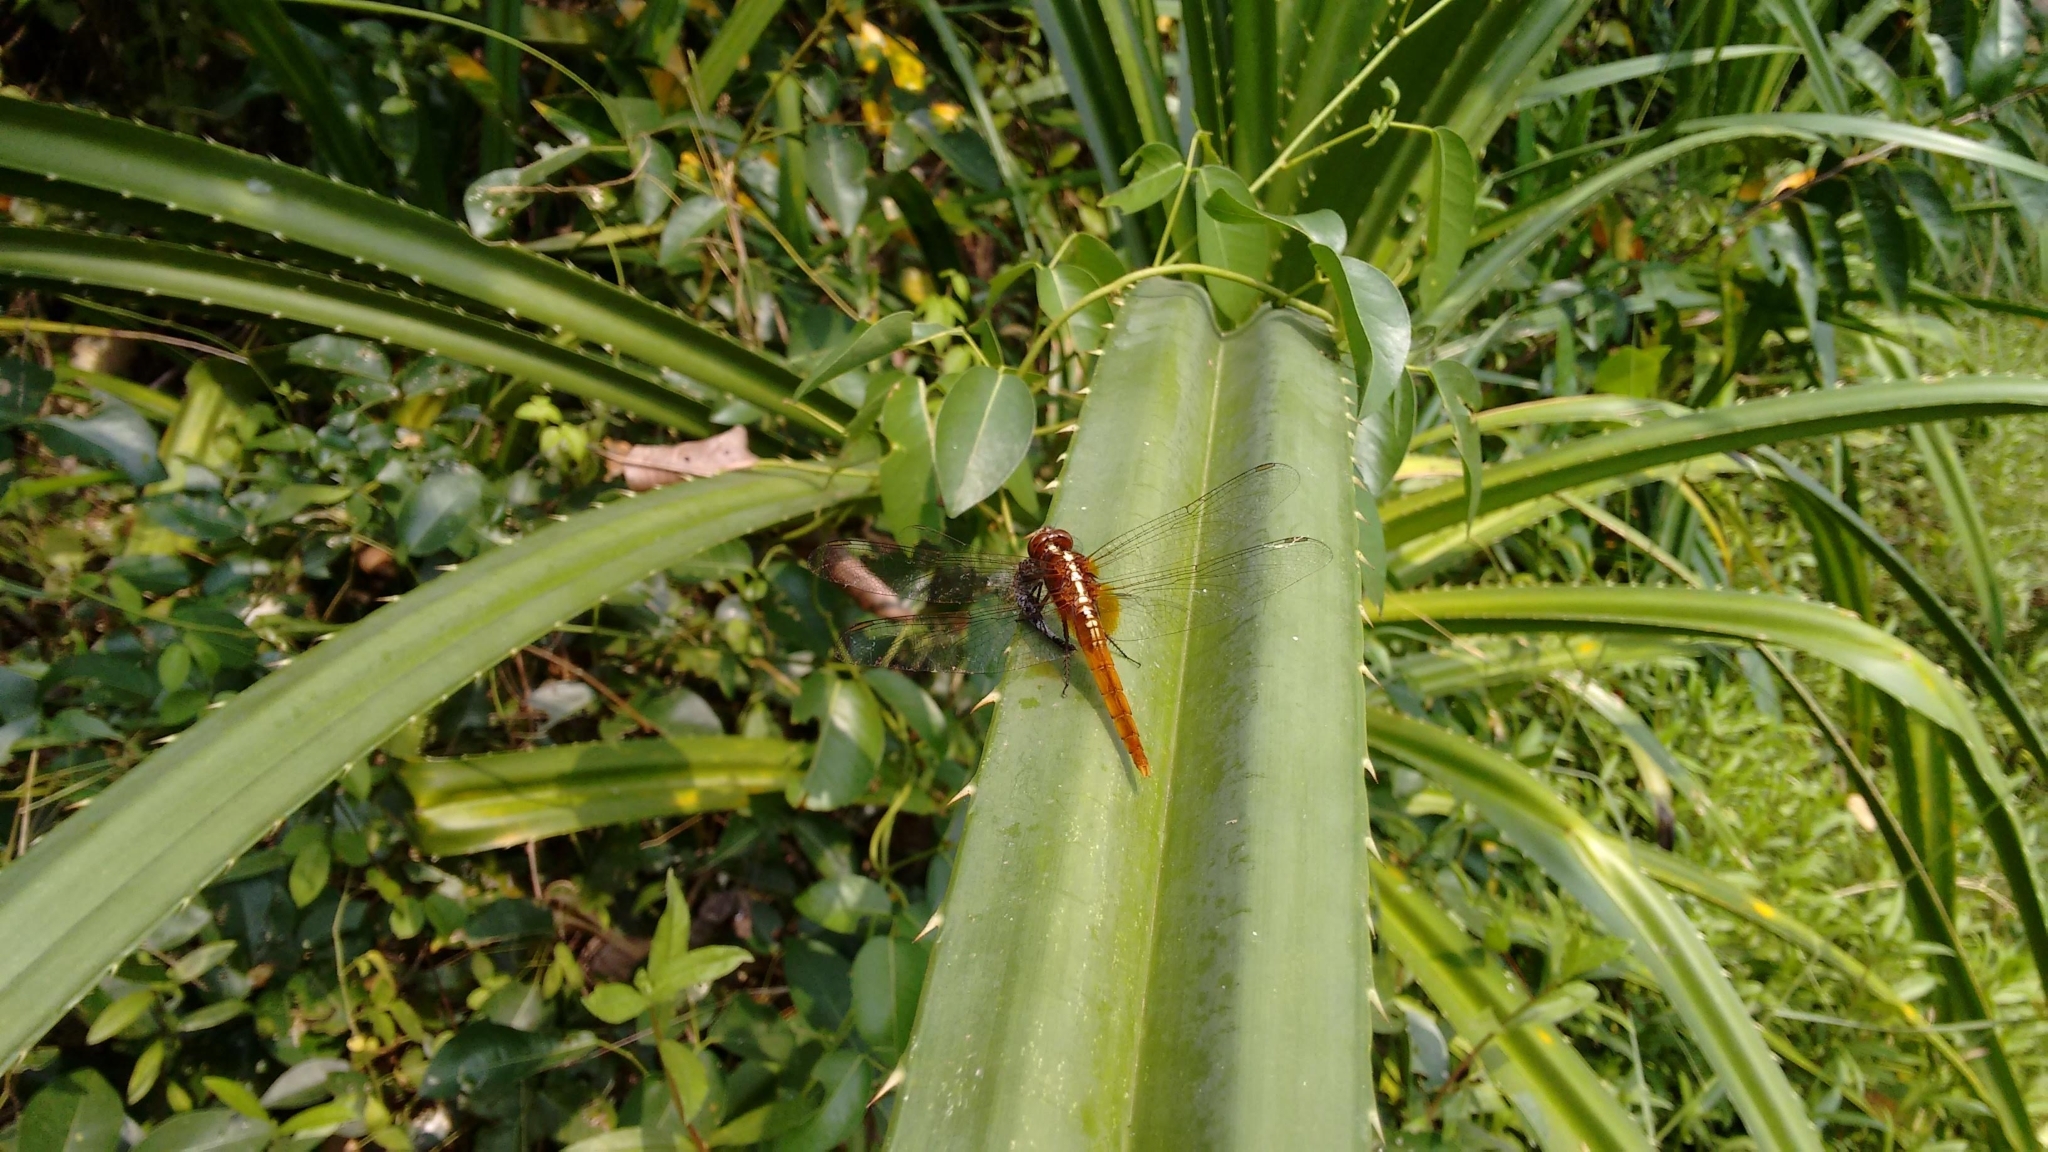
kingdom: Animalia
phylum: Arthropoda
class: Insecta
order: Odonata
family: Libellulidae
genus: Rhodothemis
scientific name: Rhodothemis rufa
